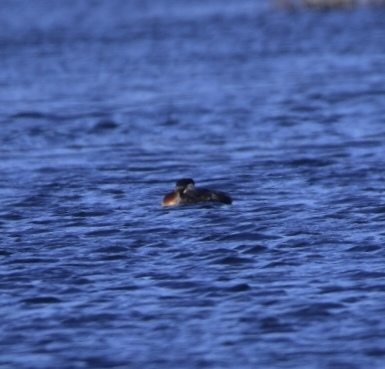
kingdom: Animalia
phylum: Chordata
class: Aves
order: Podicipediformes
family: Podicipedidae
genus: Podiceps
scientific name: Podiceps grisegena
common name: Red-necked grebe
